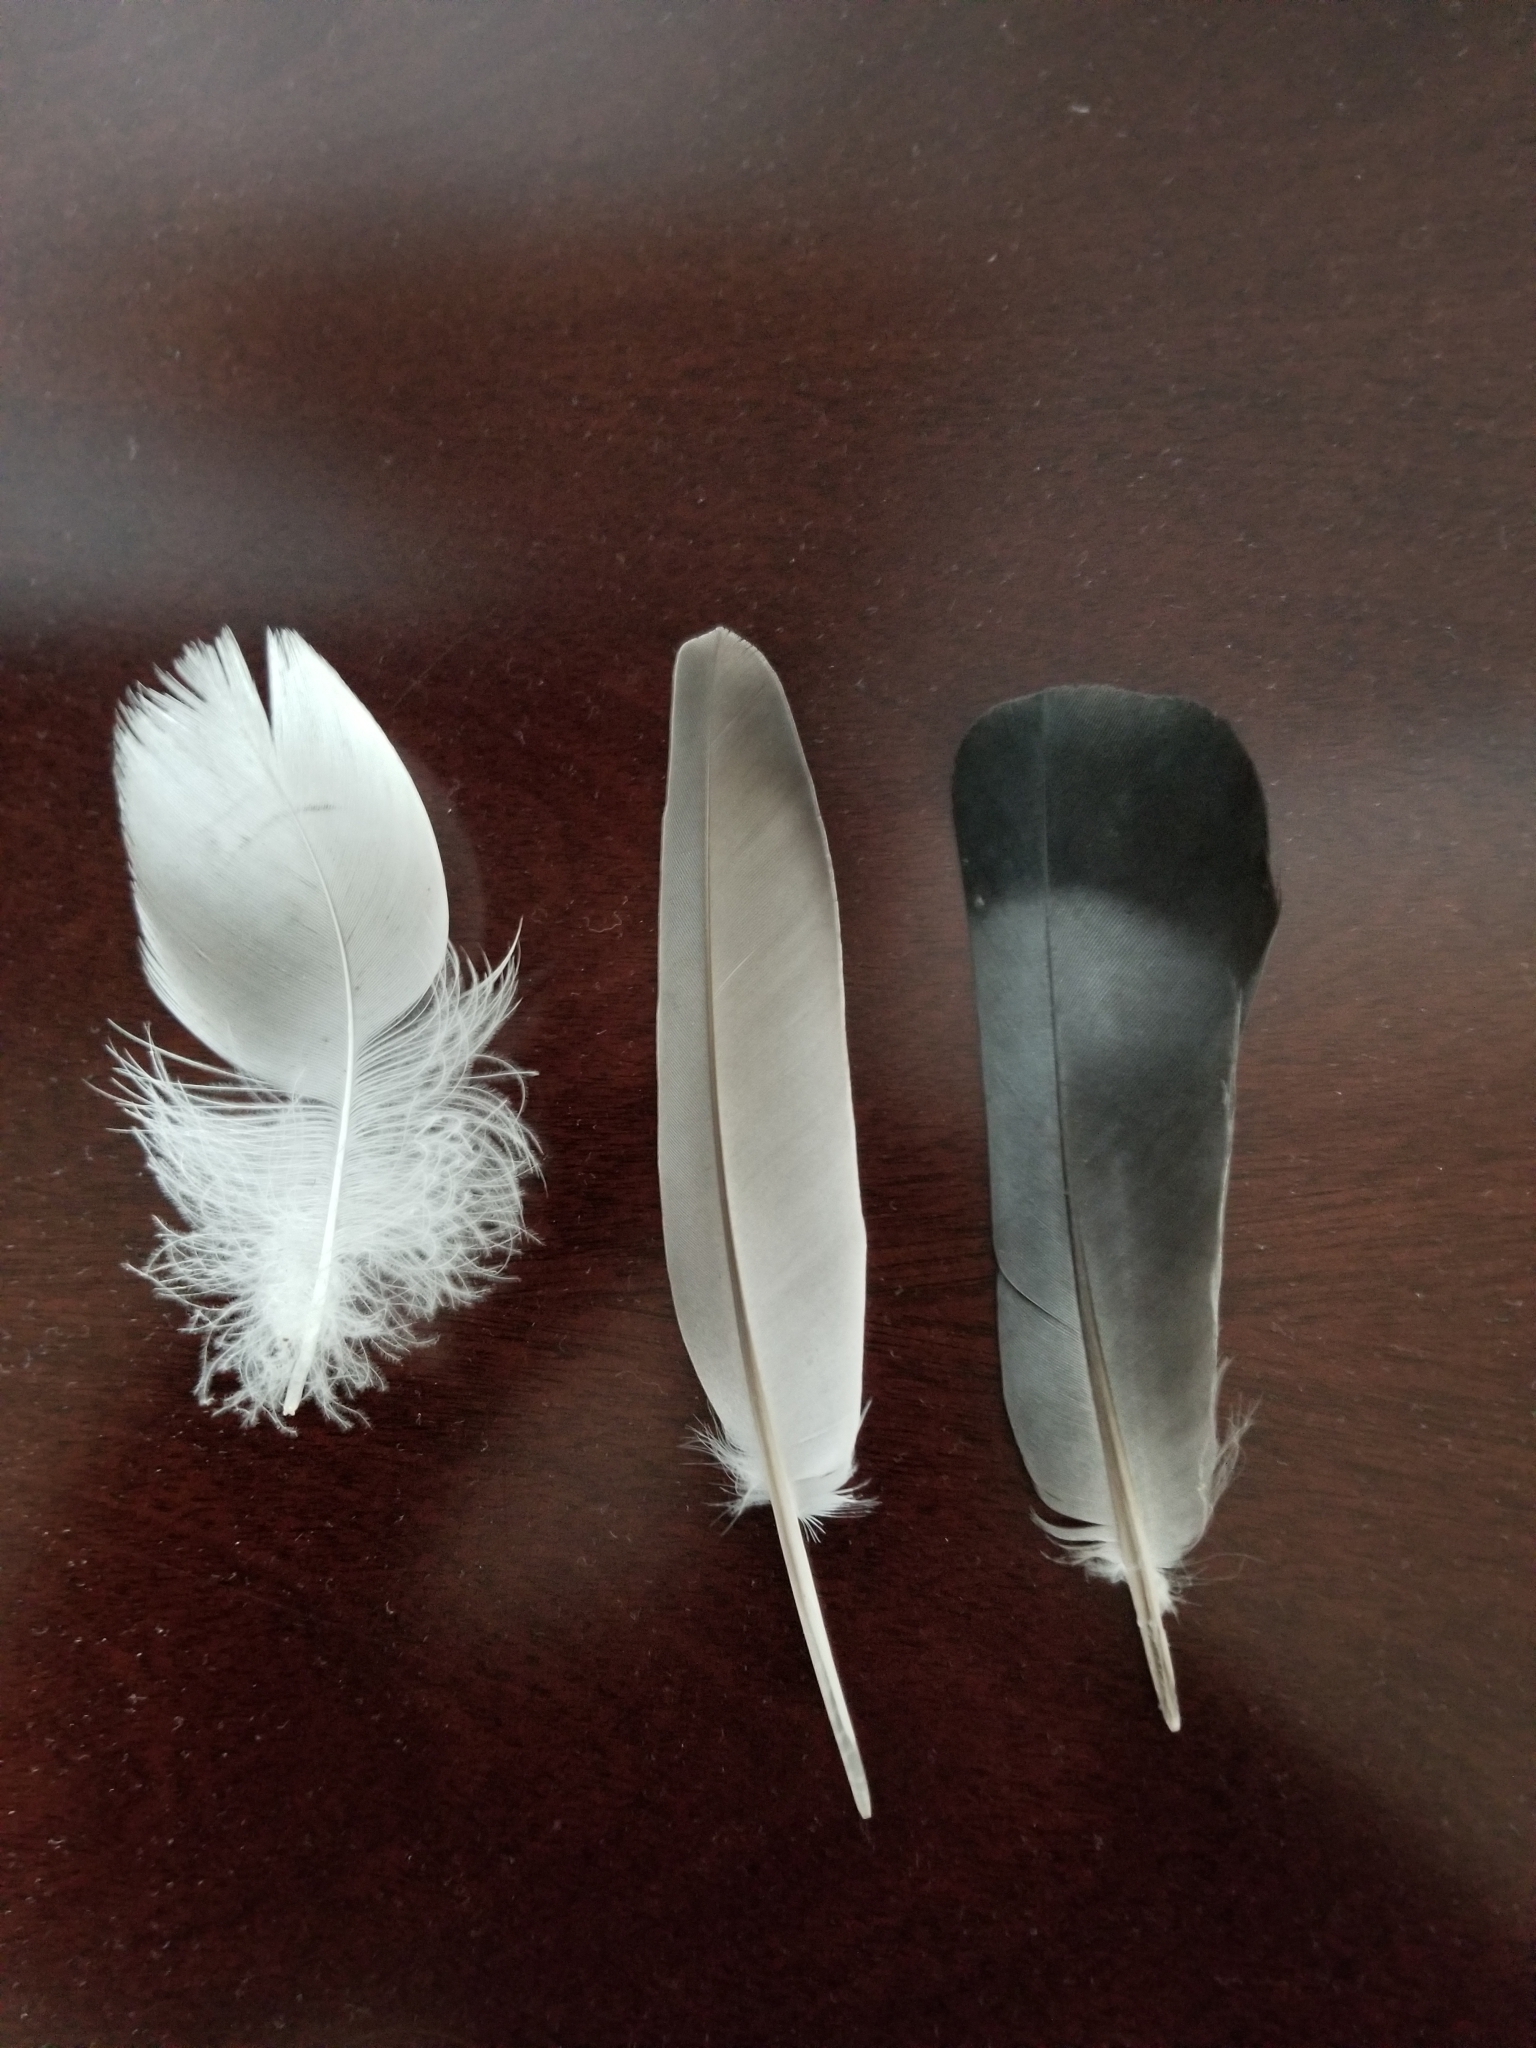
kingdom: Animalia
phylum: Chordata
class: Aves
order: Columbiformes
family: Columbidae
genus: Columba
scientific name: Columba livia
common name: Rock pigeon
